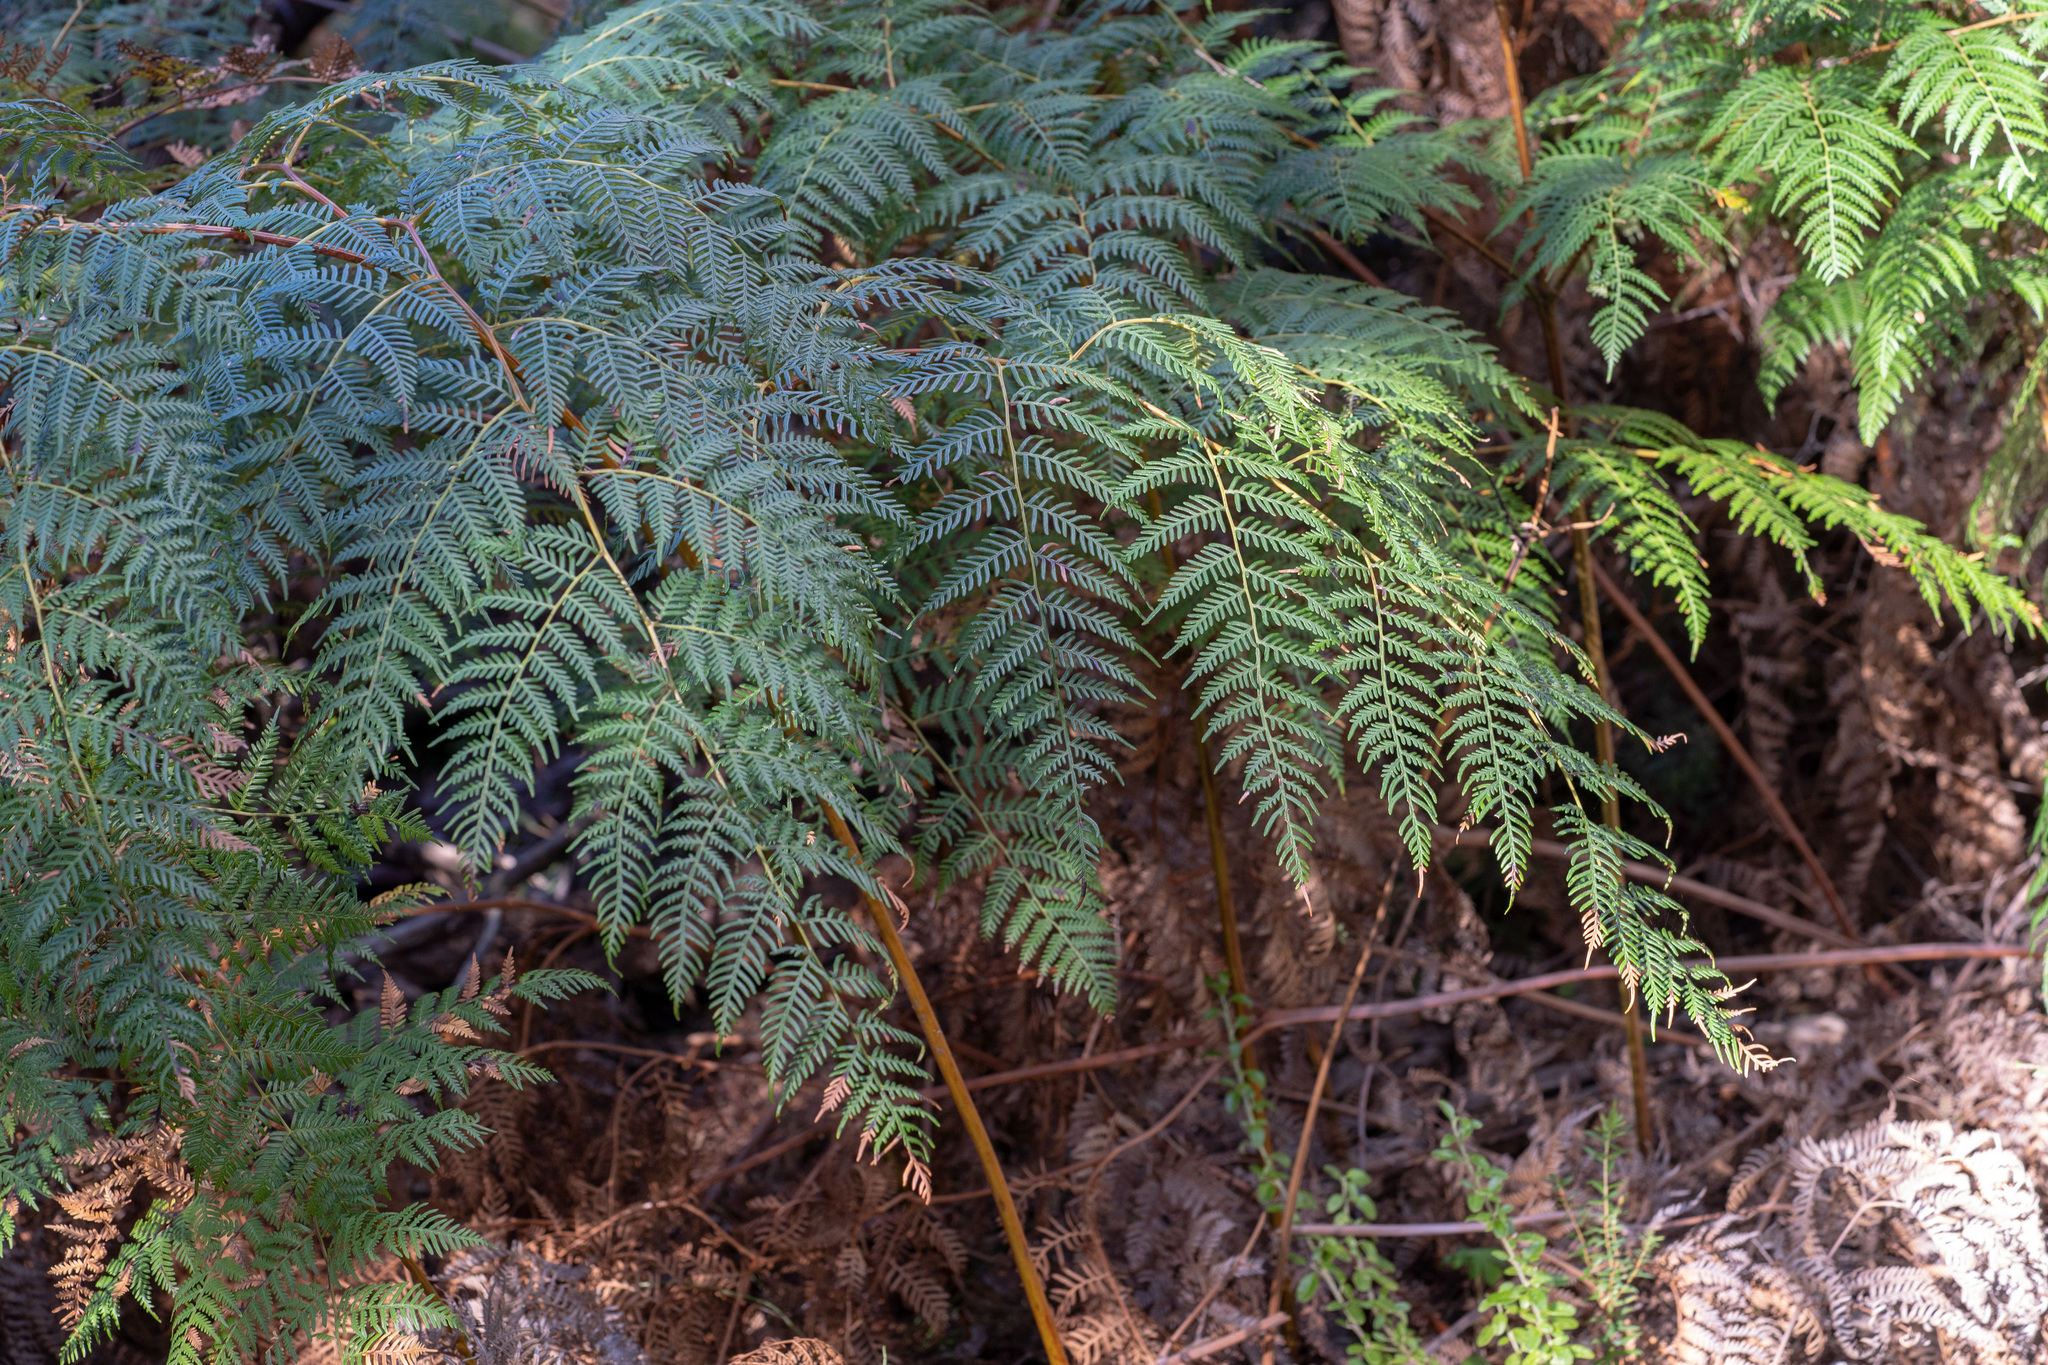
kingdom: Plantae
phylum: Tracheophyta
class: Polypodiopsida
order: Polypodiales
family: Dennstaedtiaceae
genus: Pteridium
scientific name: Pteridium esculentum
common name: Bracken fern
